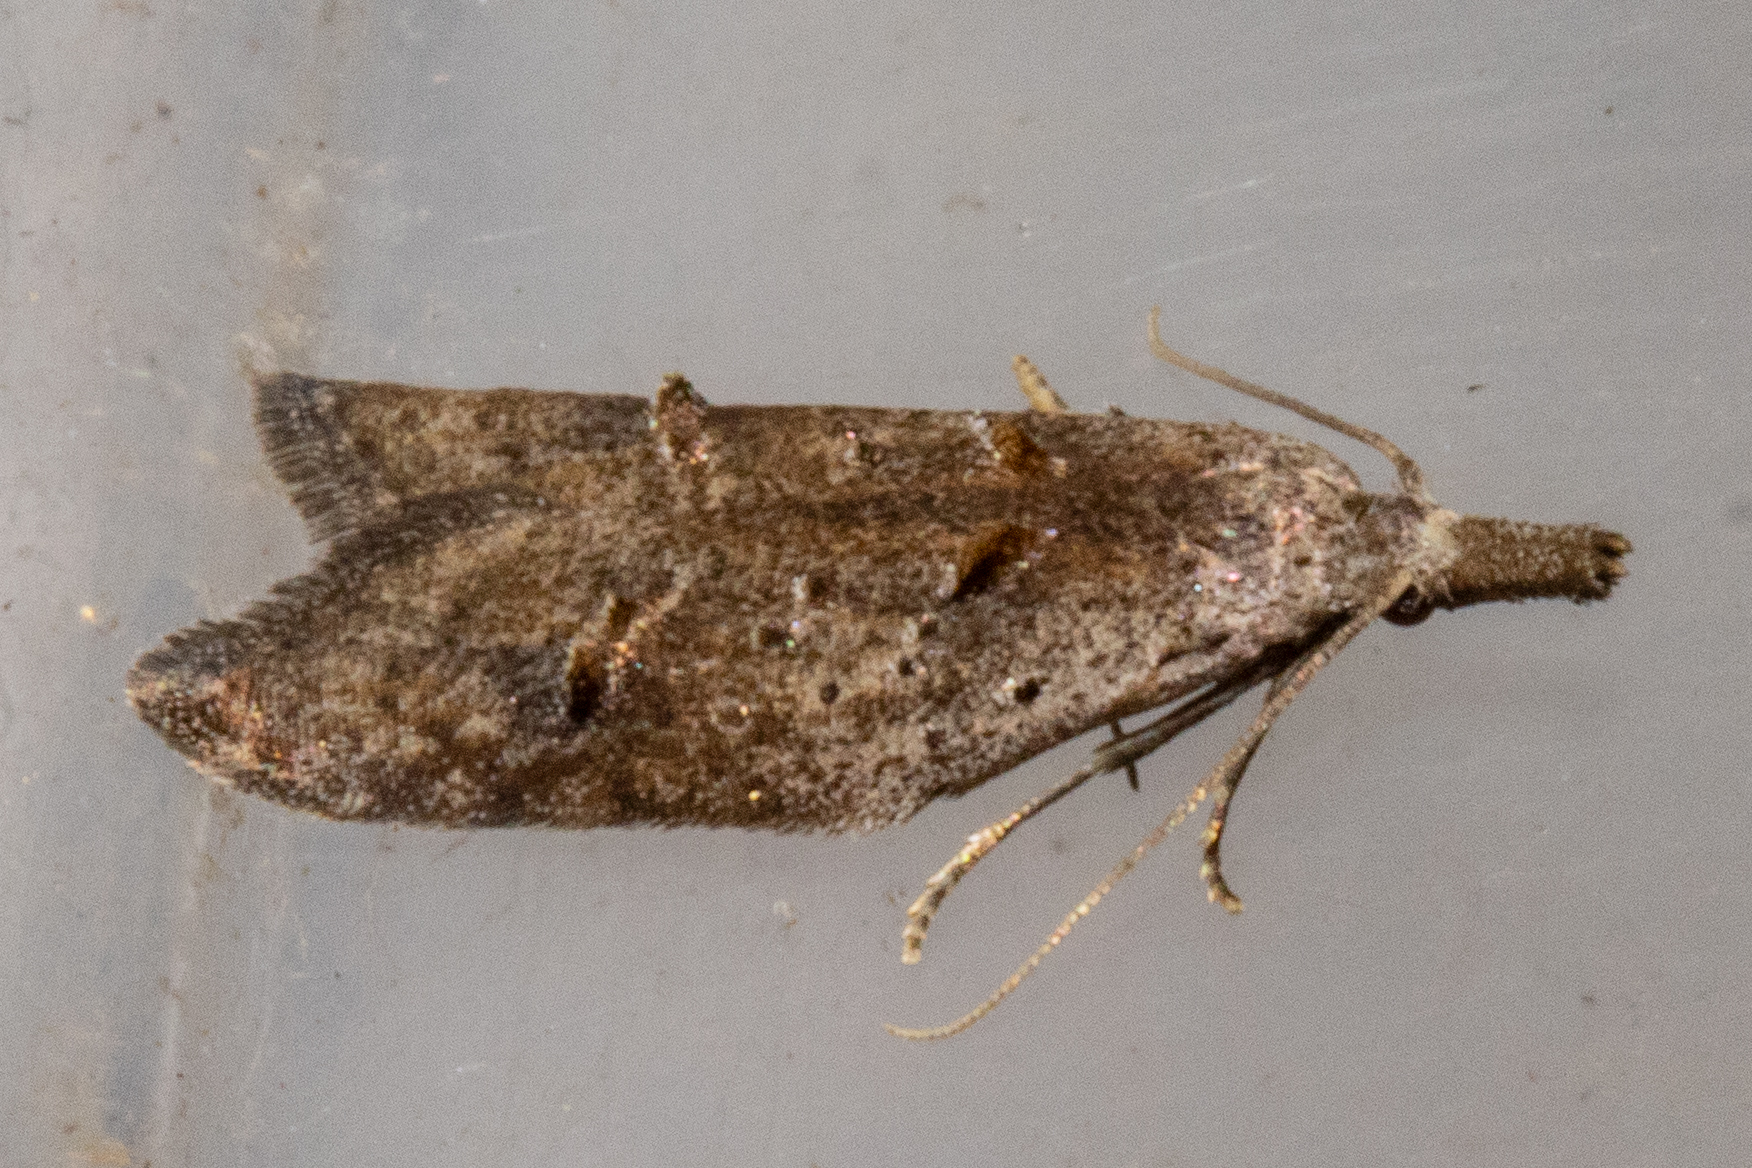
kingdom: Animalia
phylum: Arthropoda
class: Insecta
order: Lepidoptera
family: Carposinidae
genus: Carposina
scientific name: Carposina rubophaga
